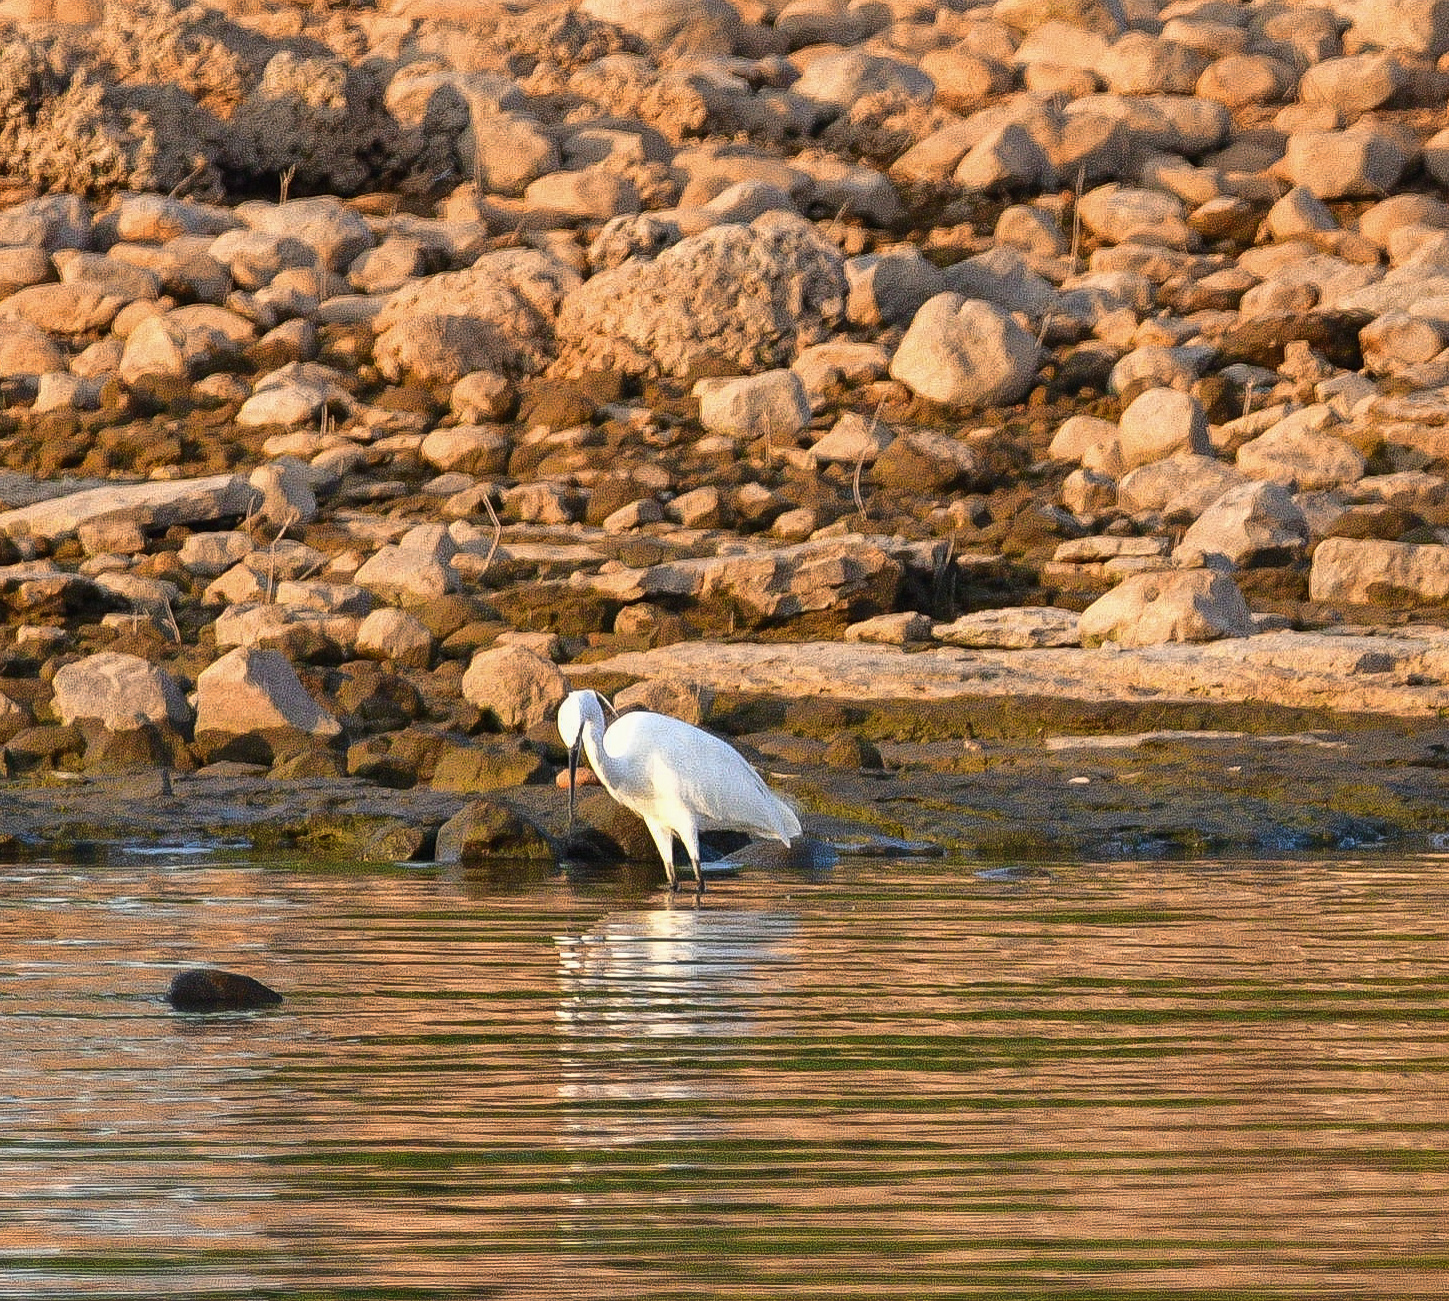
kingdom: Animalia
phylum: Chordata
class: Aves
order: Pelecaniformes
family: Ardeidae
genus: Egretta
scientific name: Egretta garzetta
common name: Little egret
